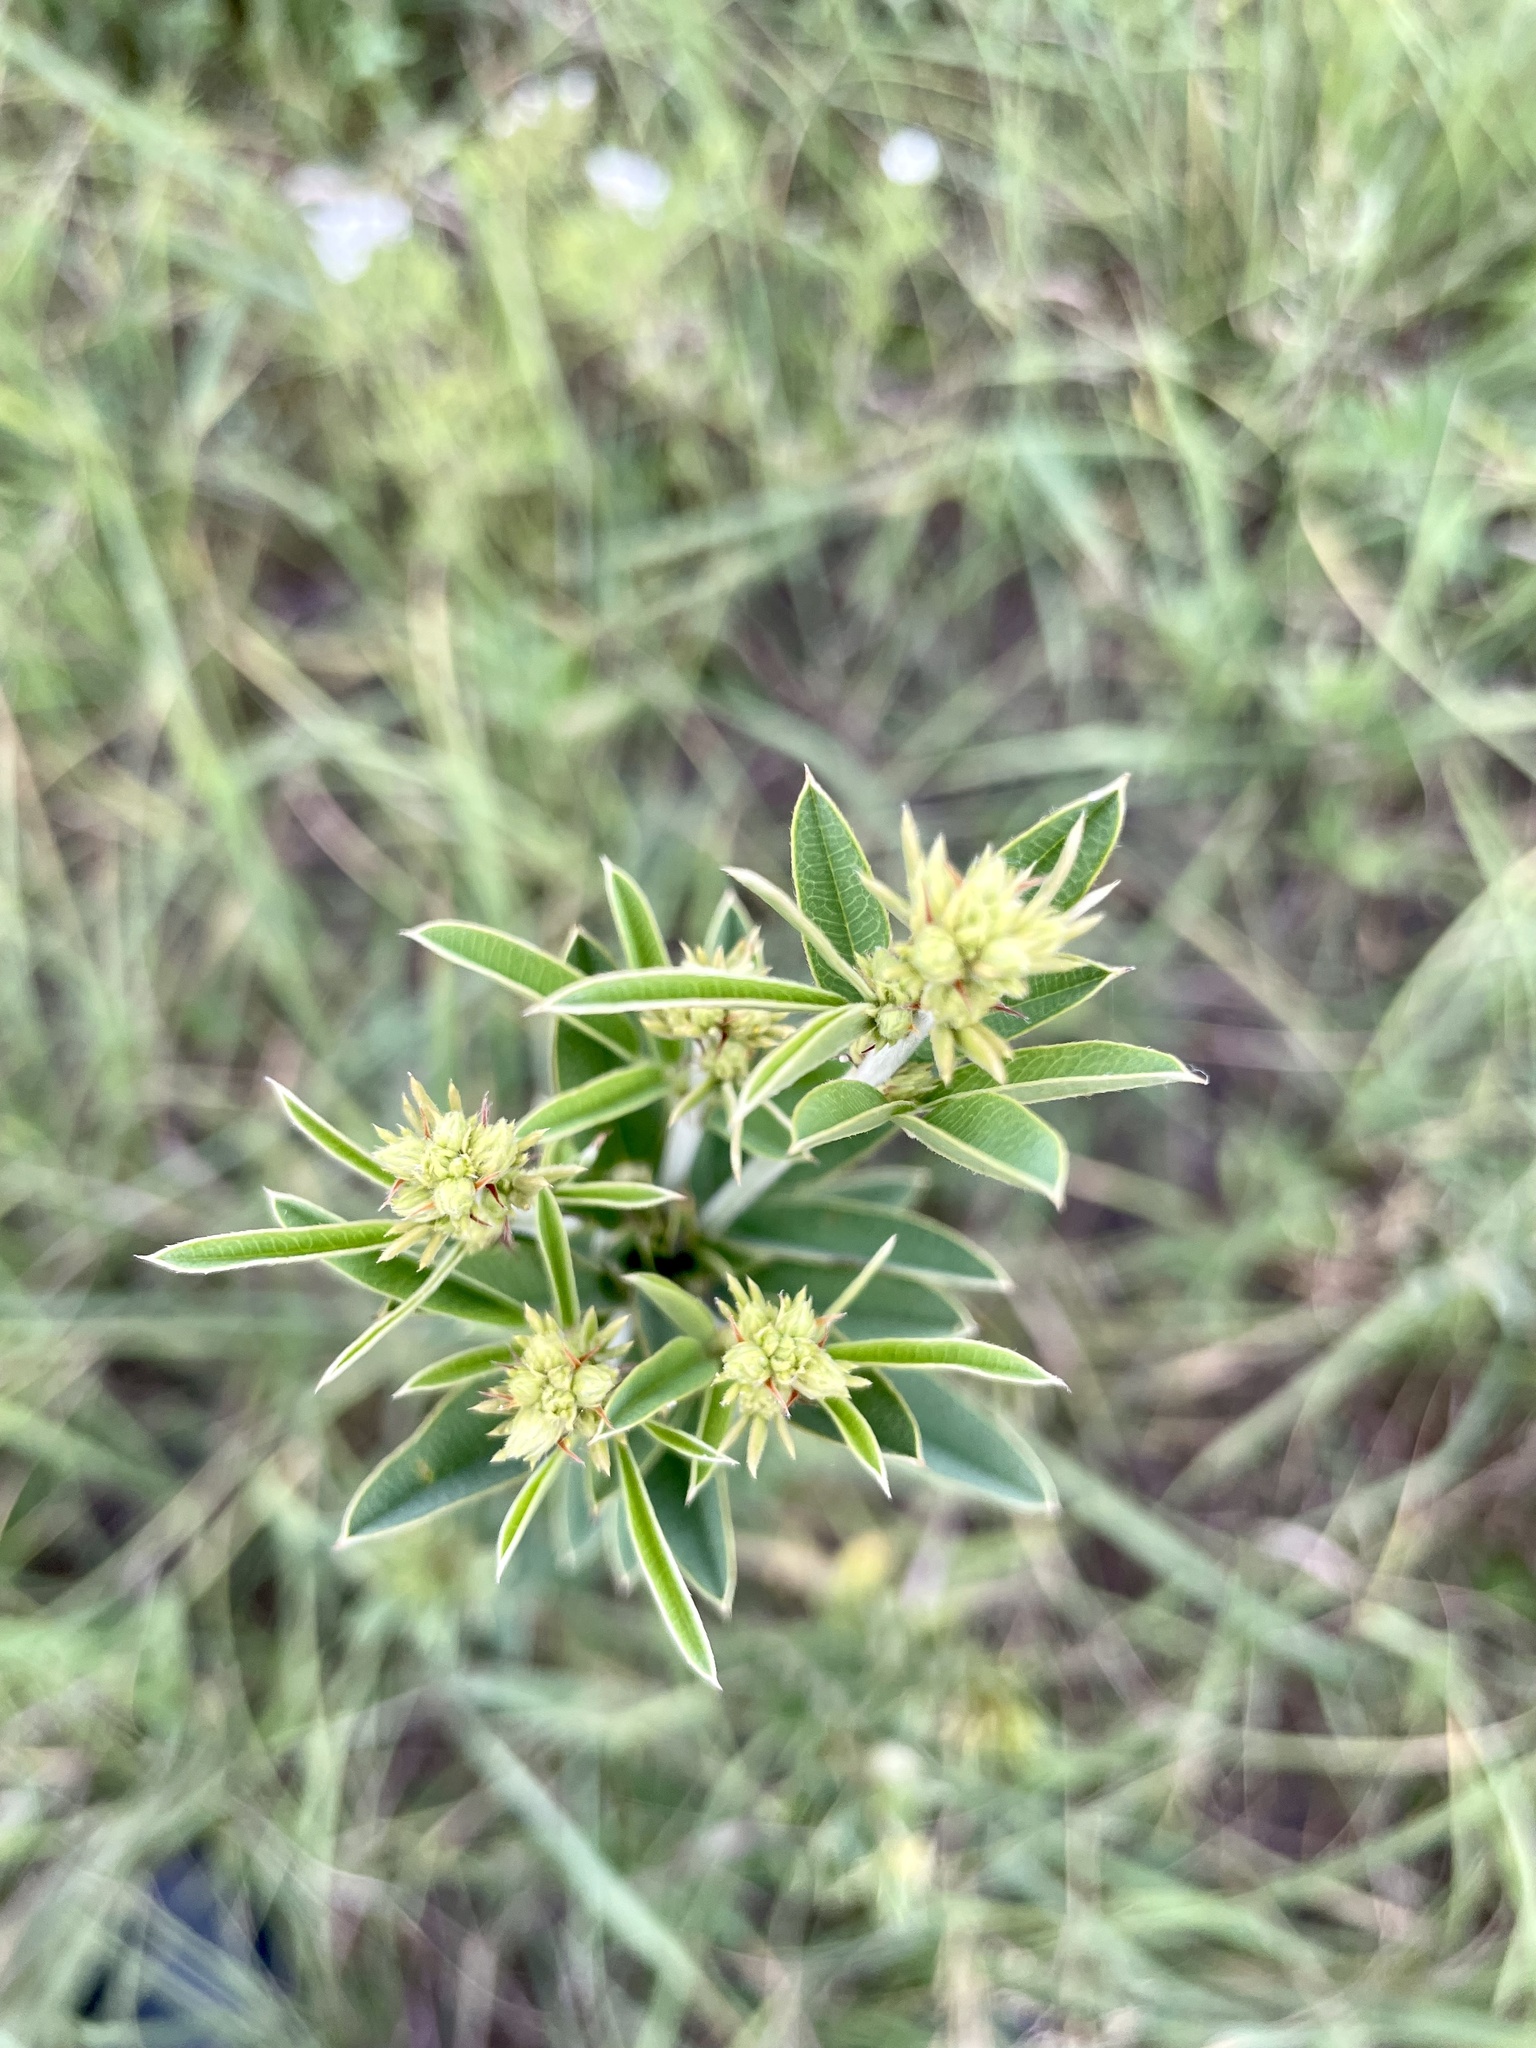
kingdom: Plantae
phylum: Tracheophyta
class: Magnoliopsida
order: Fabales
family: Fabaceae
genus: Lespedeza
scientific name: Lespedeza capitata
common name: Dusty clover
